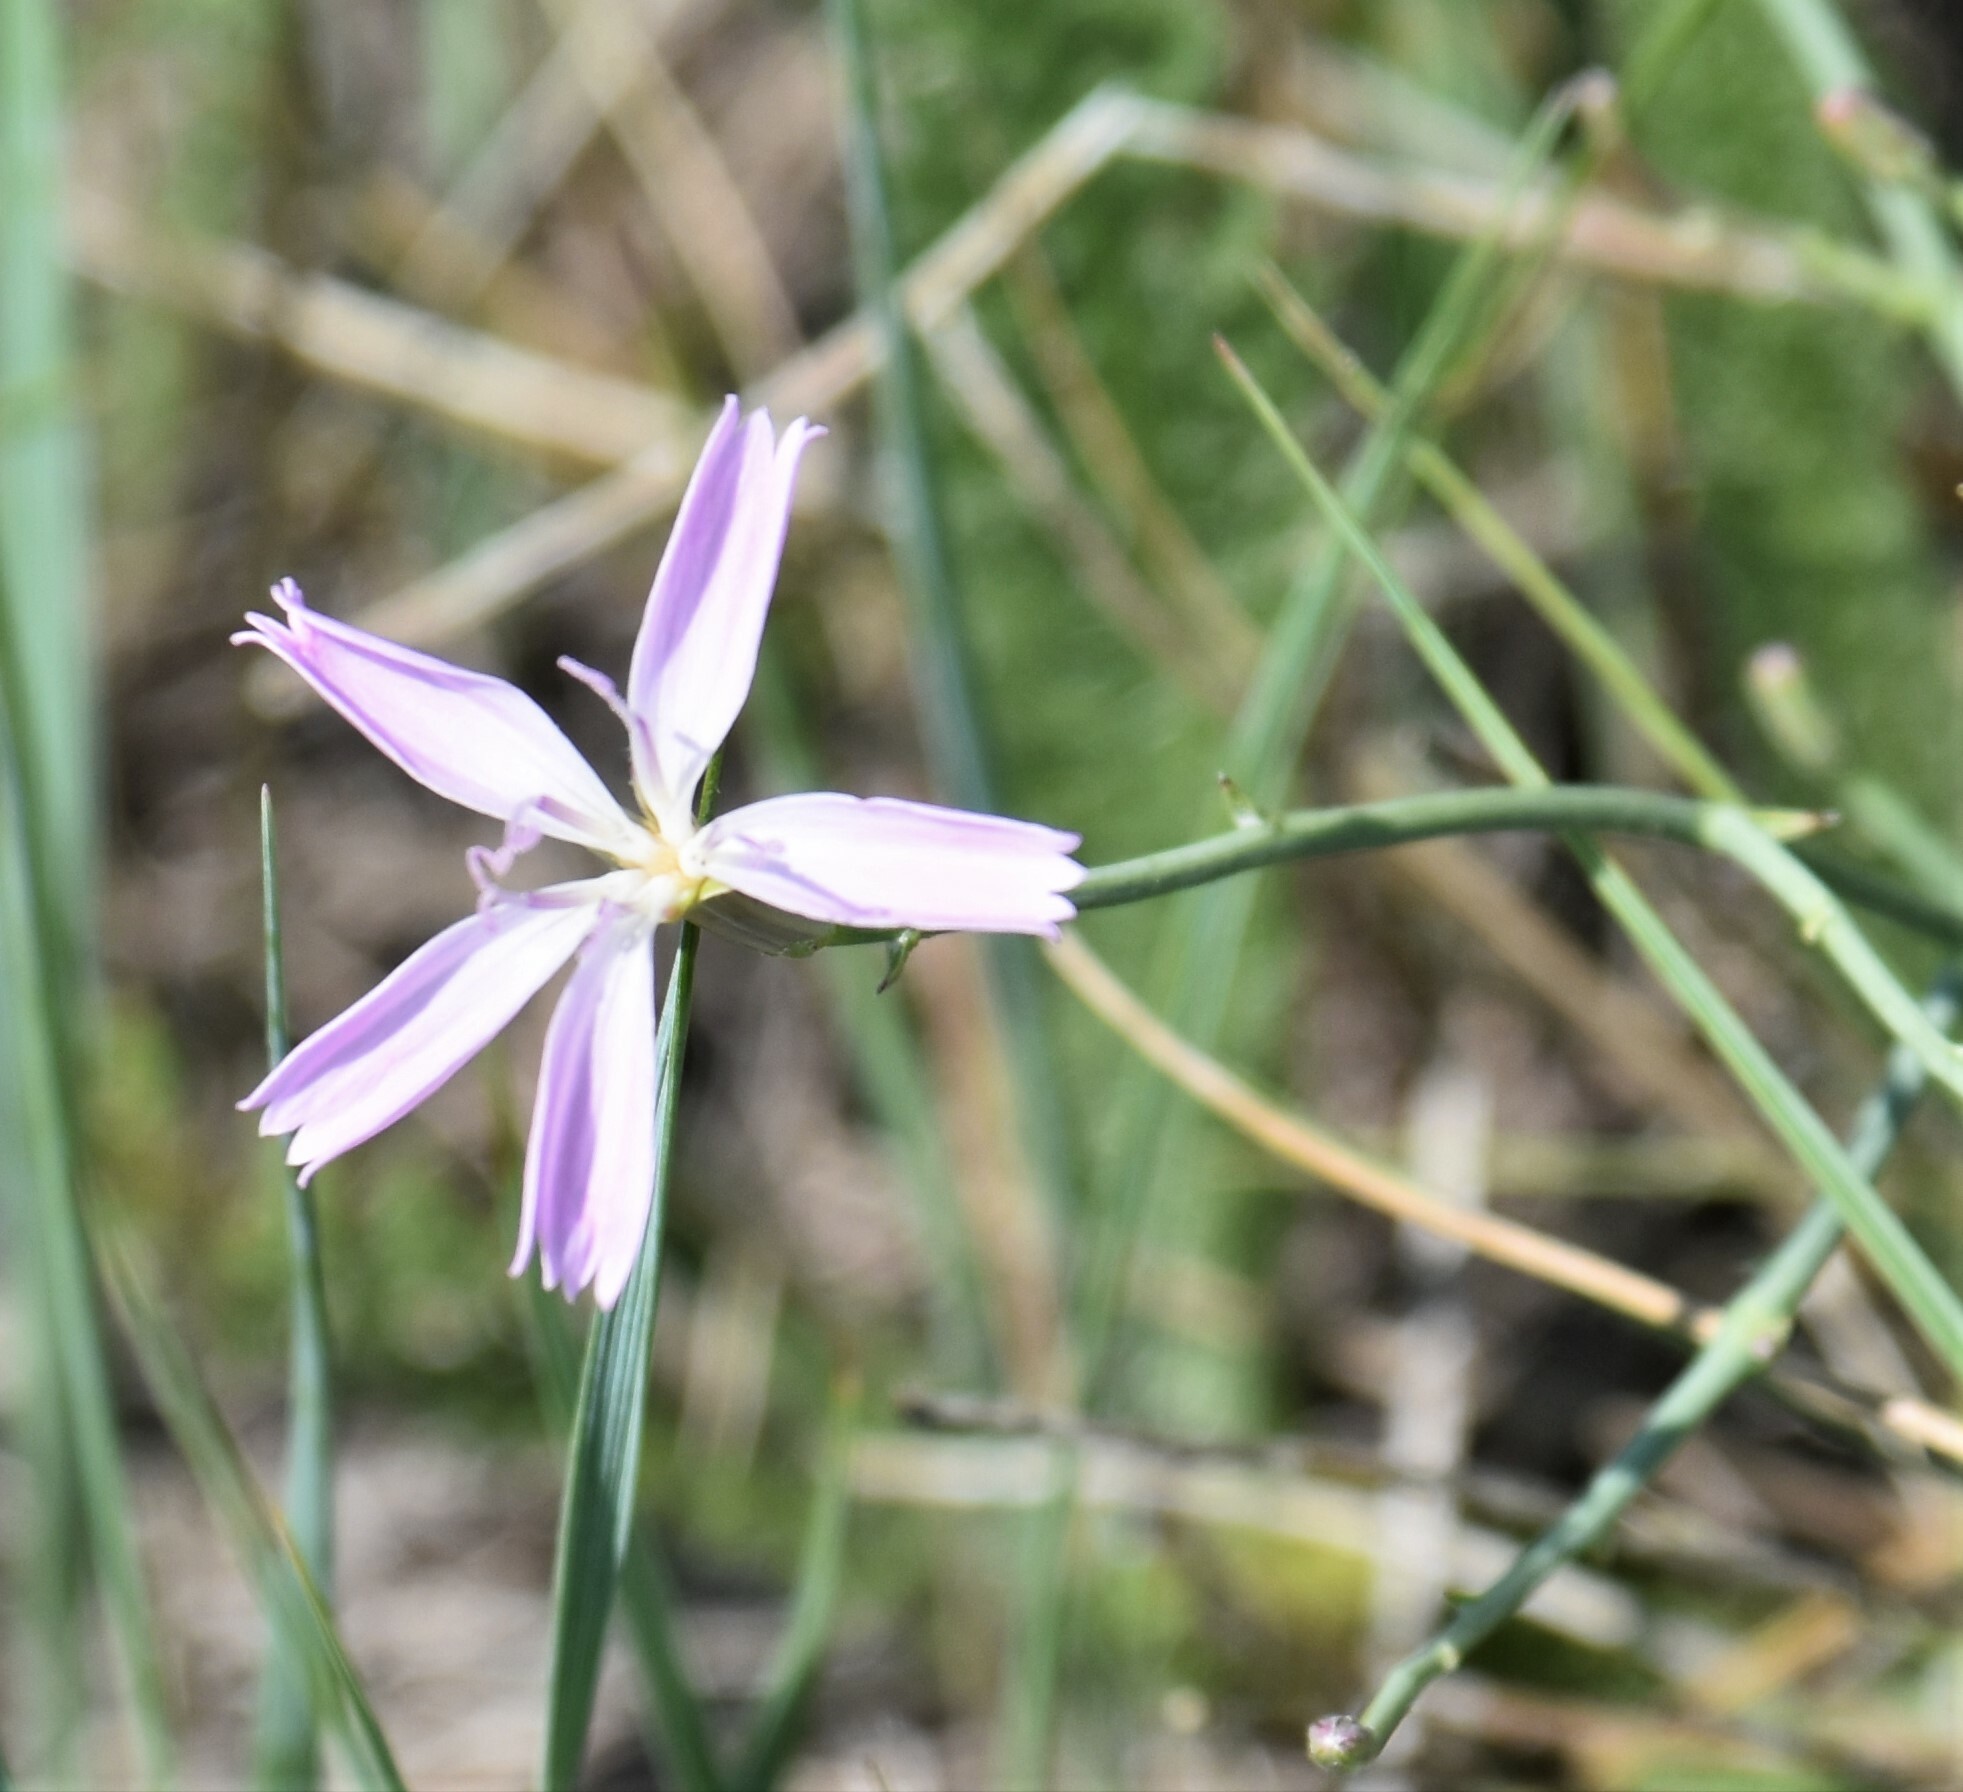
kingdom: Plantae
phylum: Tracheophyta
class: Magnoliopsida
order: Asterales
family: Asteraceae
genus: Lygodesmia
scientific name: Lygodesmia juncea
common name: Common skeletonweed
